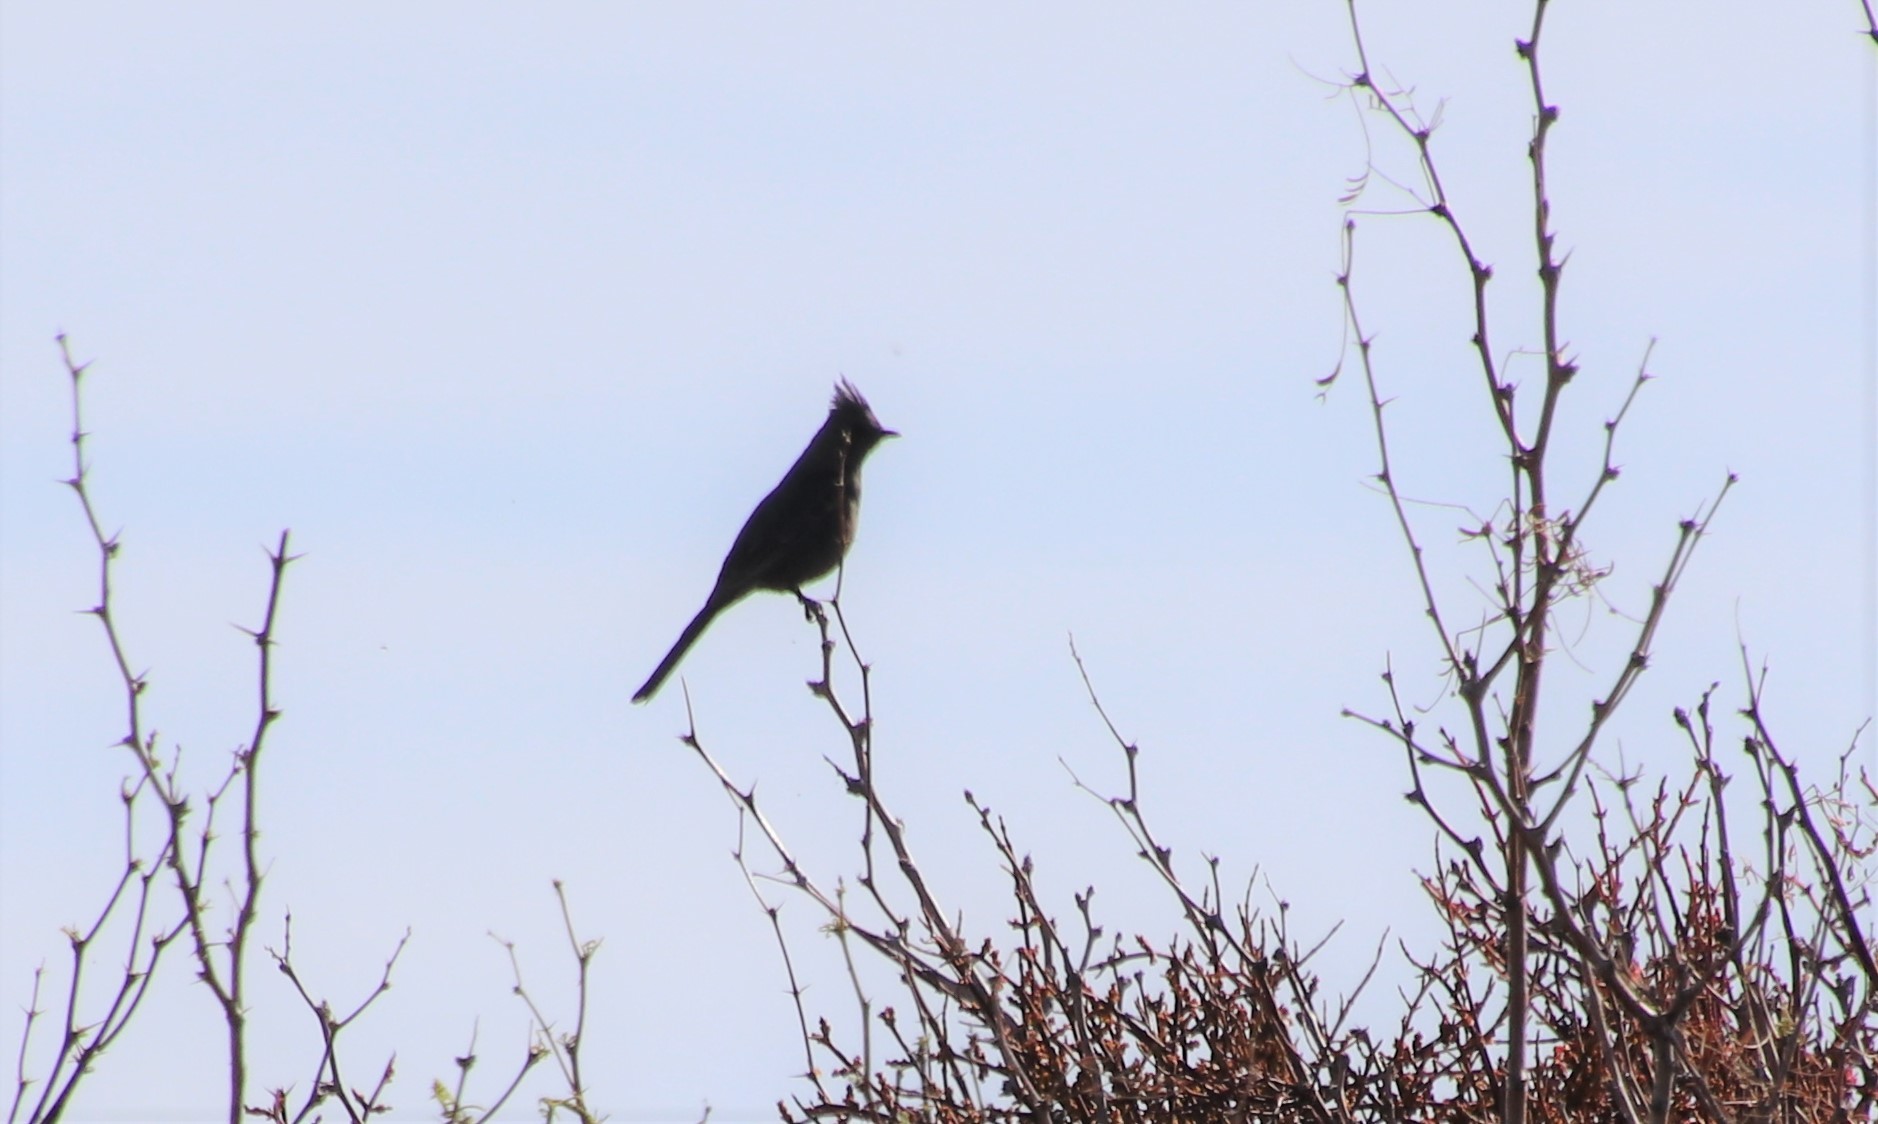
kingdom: Animalia
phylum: Chordata
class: Aves
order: Passeriformes
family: Ptilogonatidae
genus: Phainopepla
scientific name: Phainopepla nitens
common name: Phainopepla
